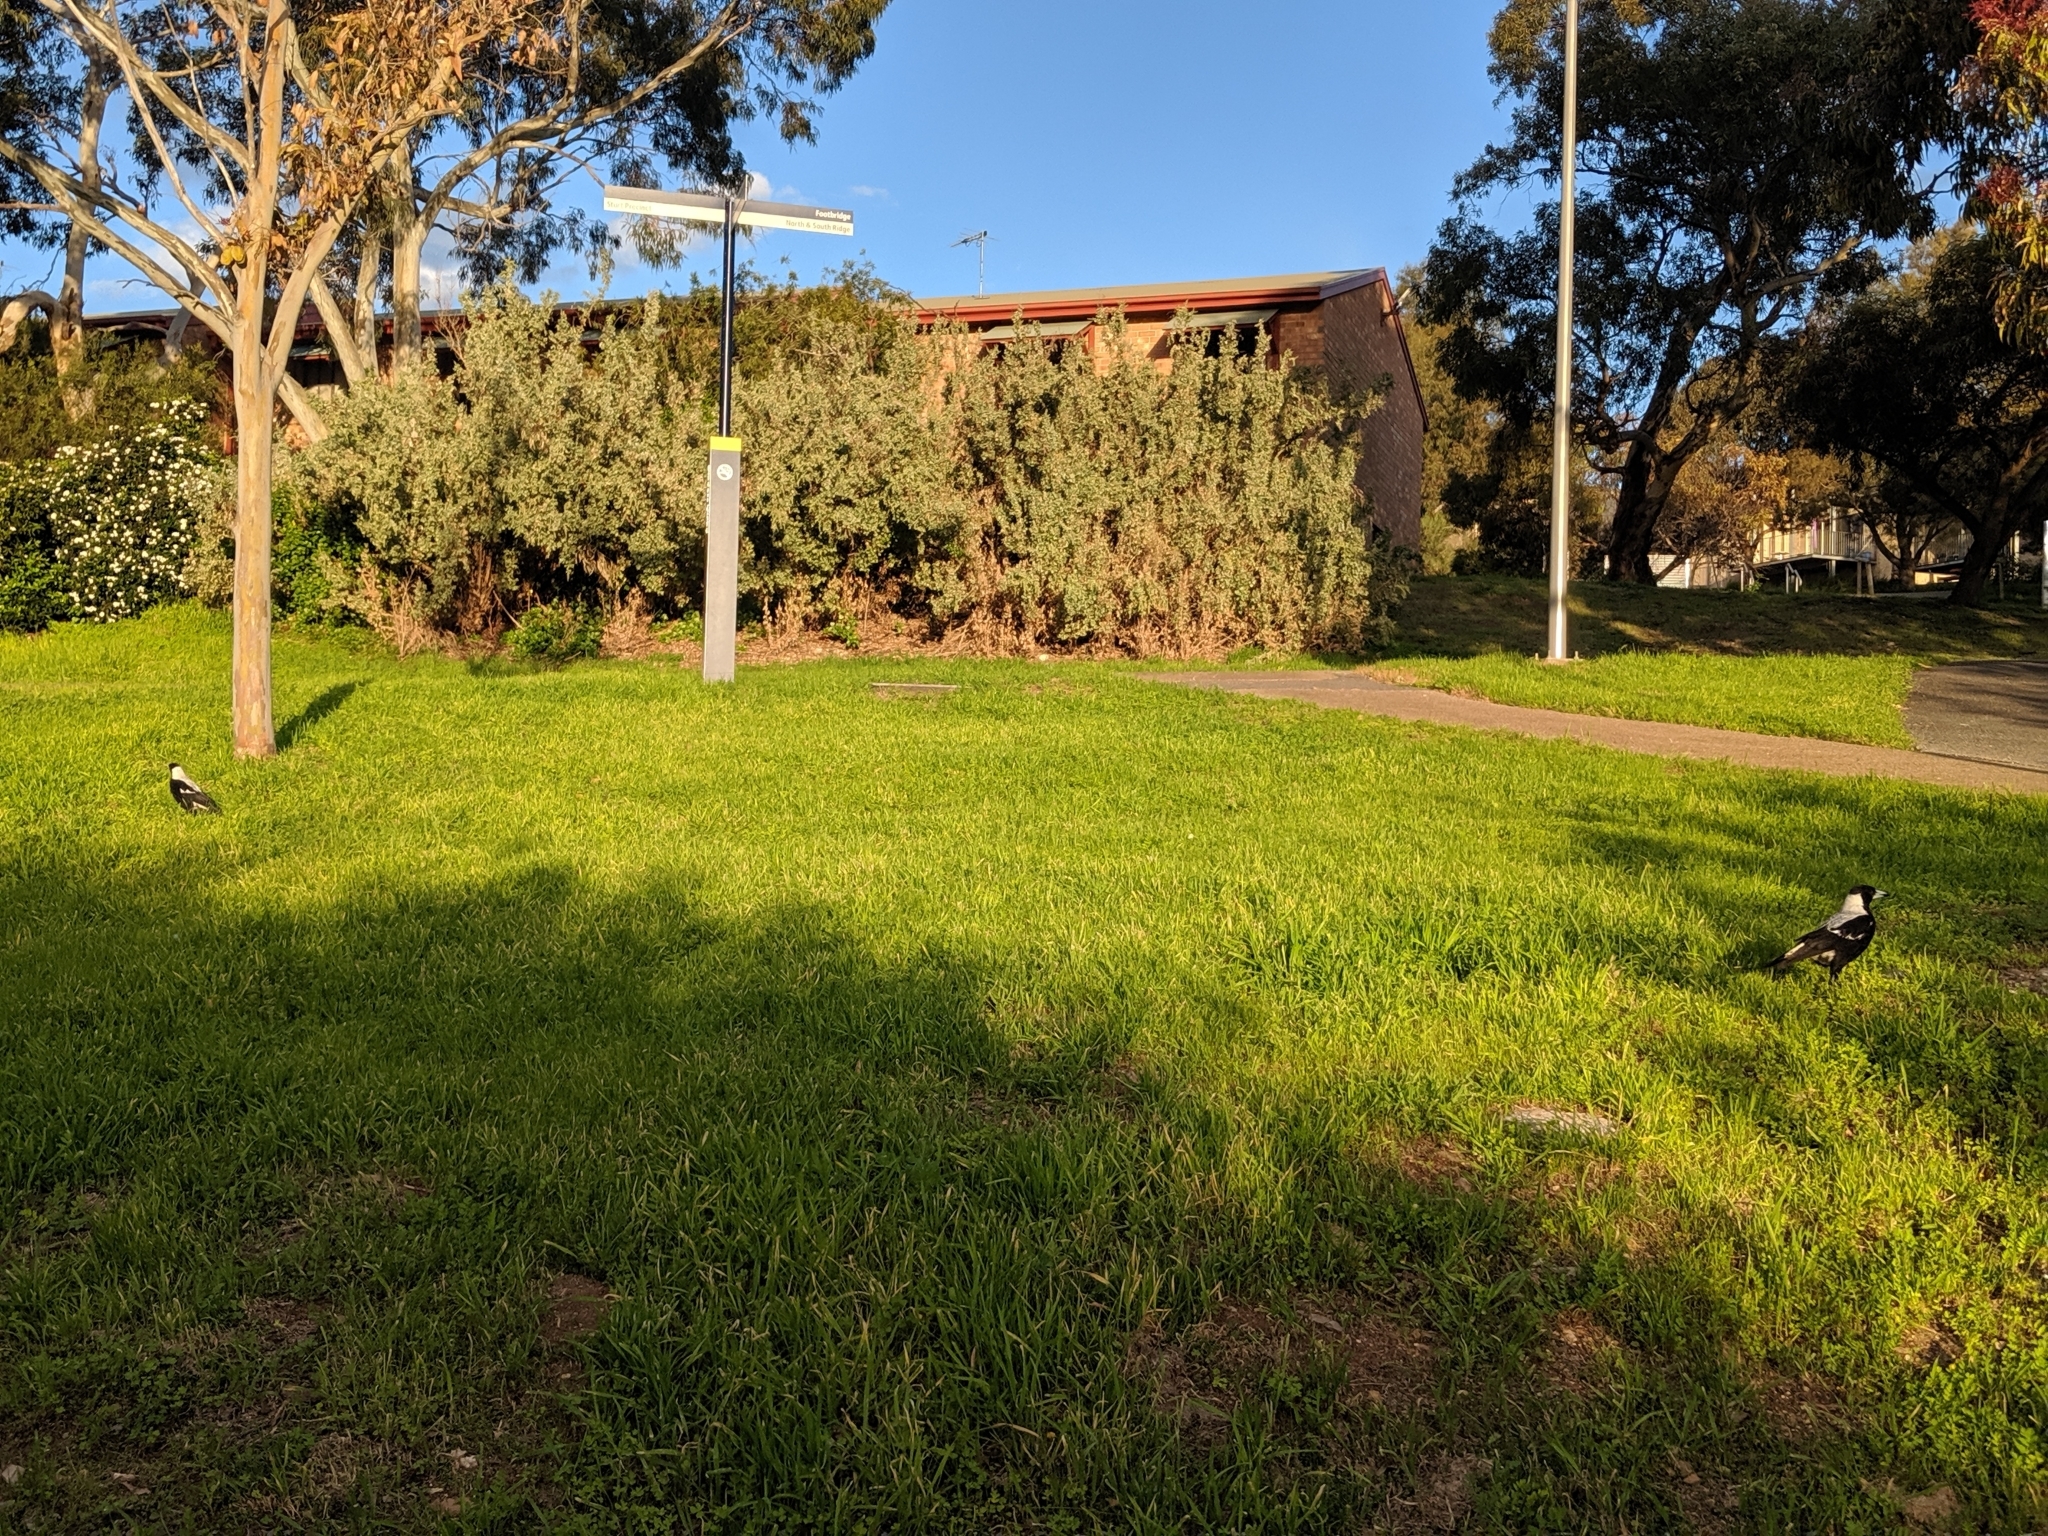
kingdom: Animalia
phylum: Chordata
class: Aves
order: Passeriformes
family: Cracticidae
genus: Gymnorhina
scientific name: Gymnorhina tibicen
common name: Australian magpie
